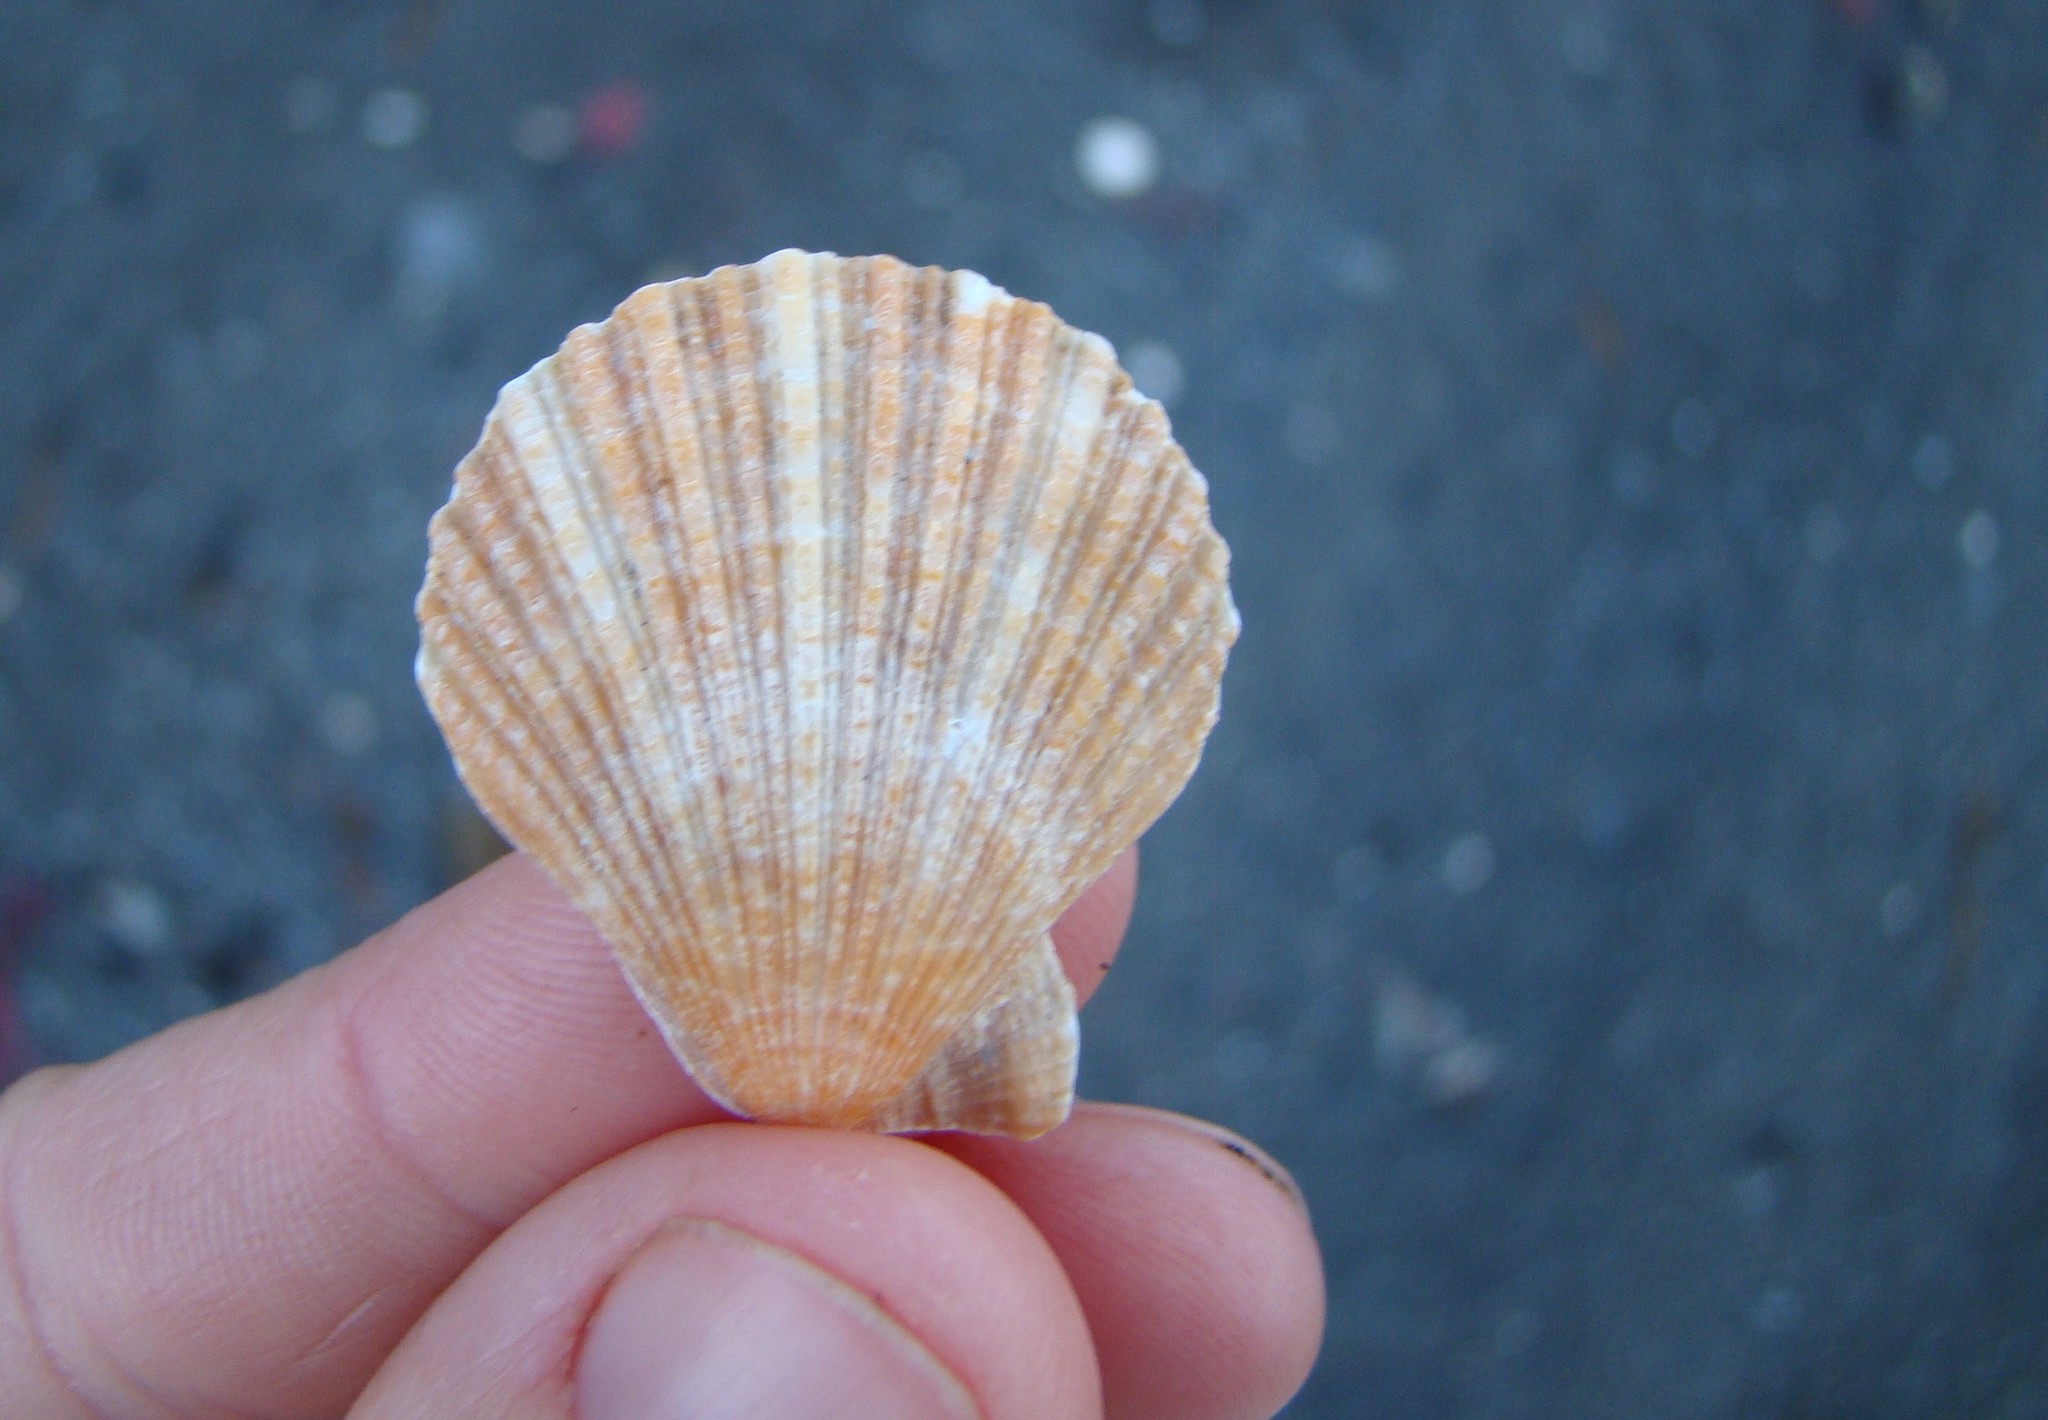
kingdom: Animalia
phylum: Mollusca
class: Bivalvia
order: Pectinida
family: Pectinidae
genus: Talochlamys
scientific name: Talochlamys zelandiae
